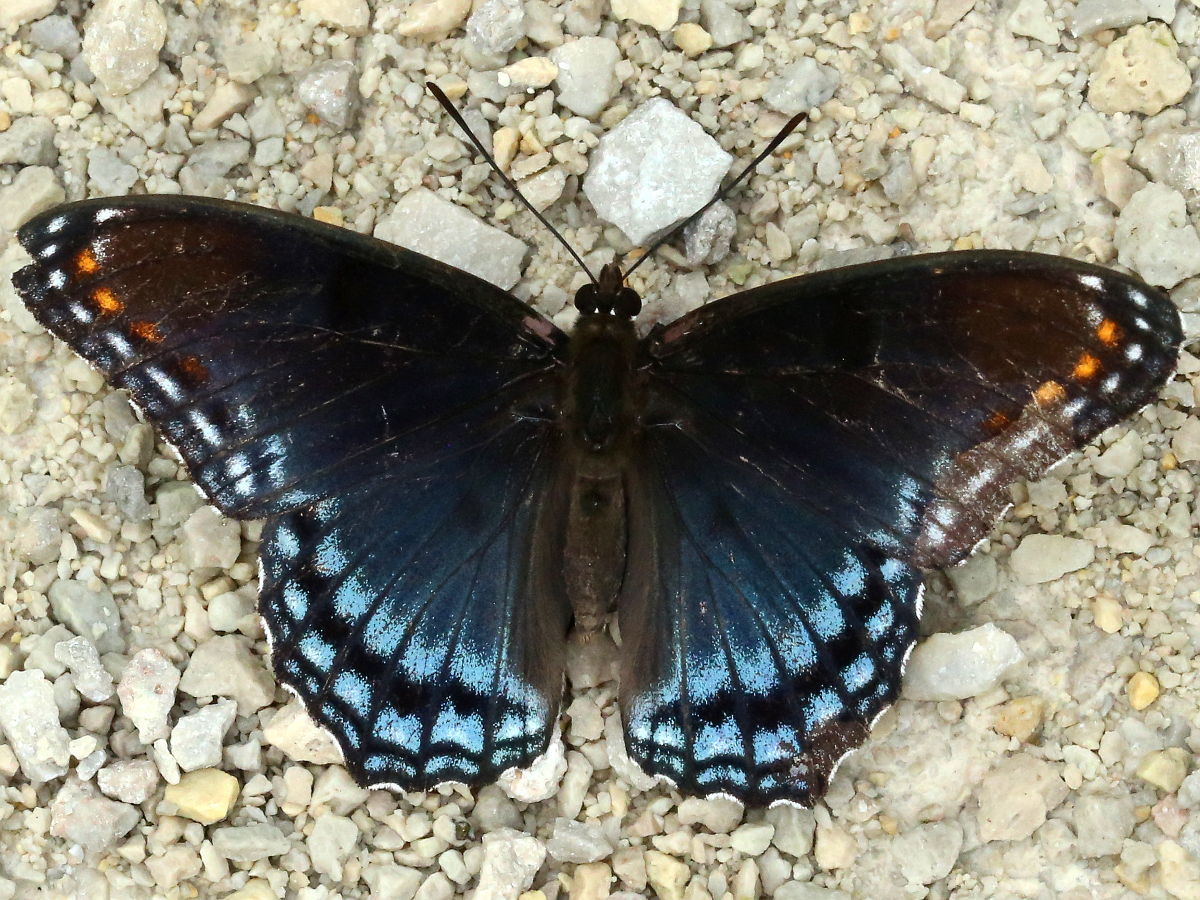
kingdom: Animalia
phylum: Arthropoda
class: Insecta
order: Lepidoptera
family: Nymphalidae
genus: Limenitis
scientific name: Limenitis arthemis
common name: Red-spotted admiral
